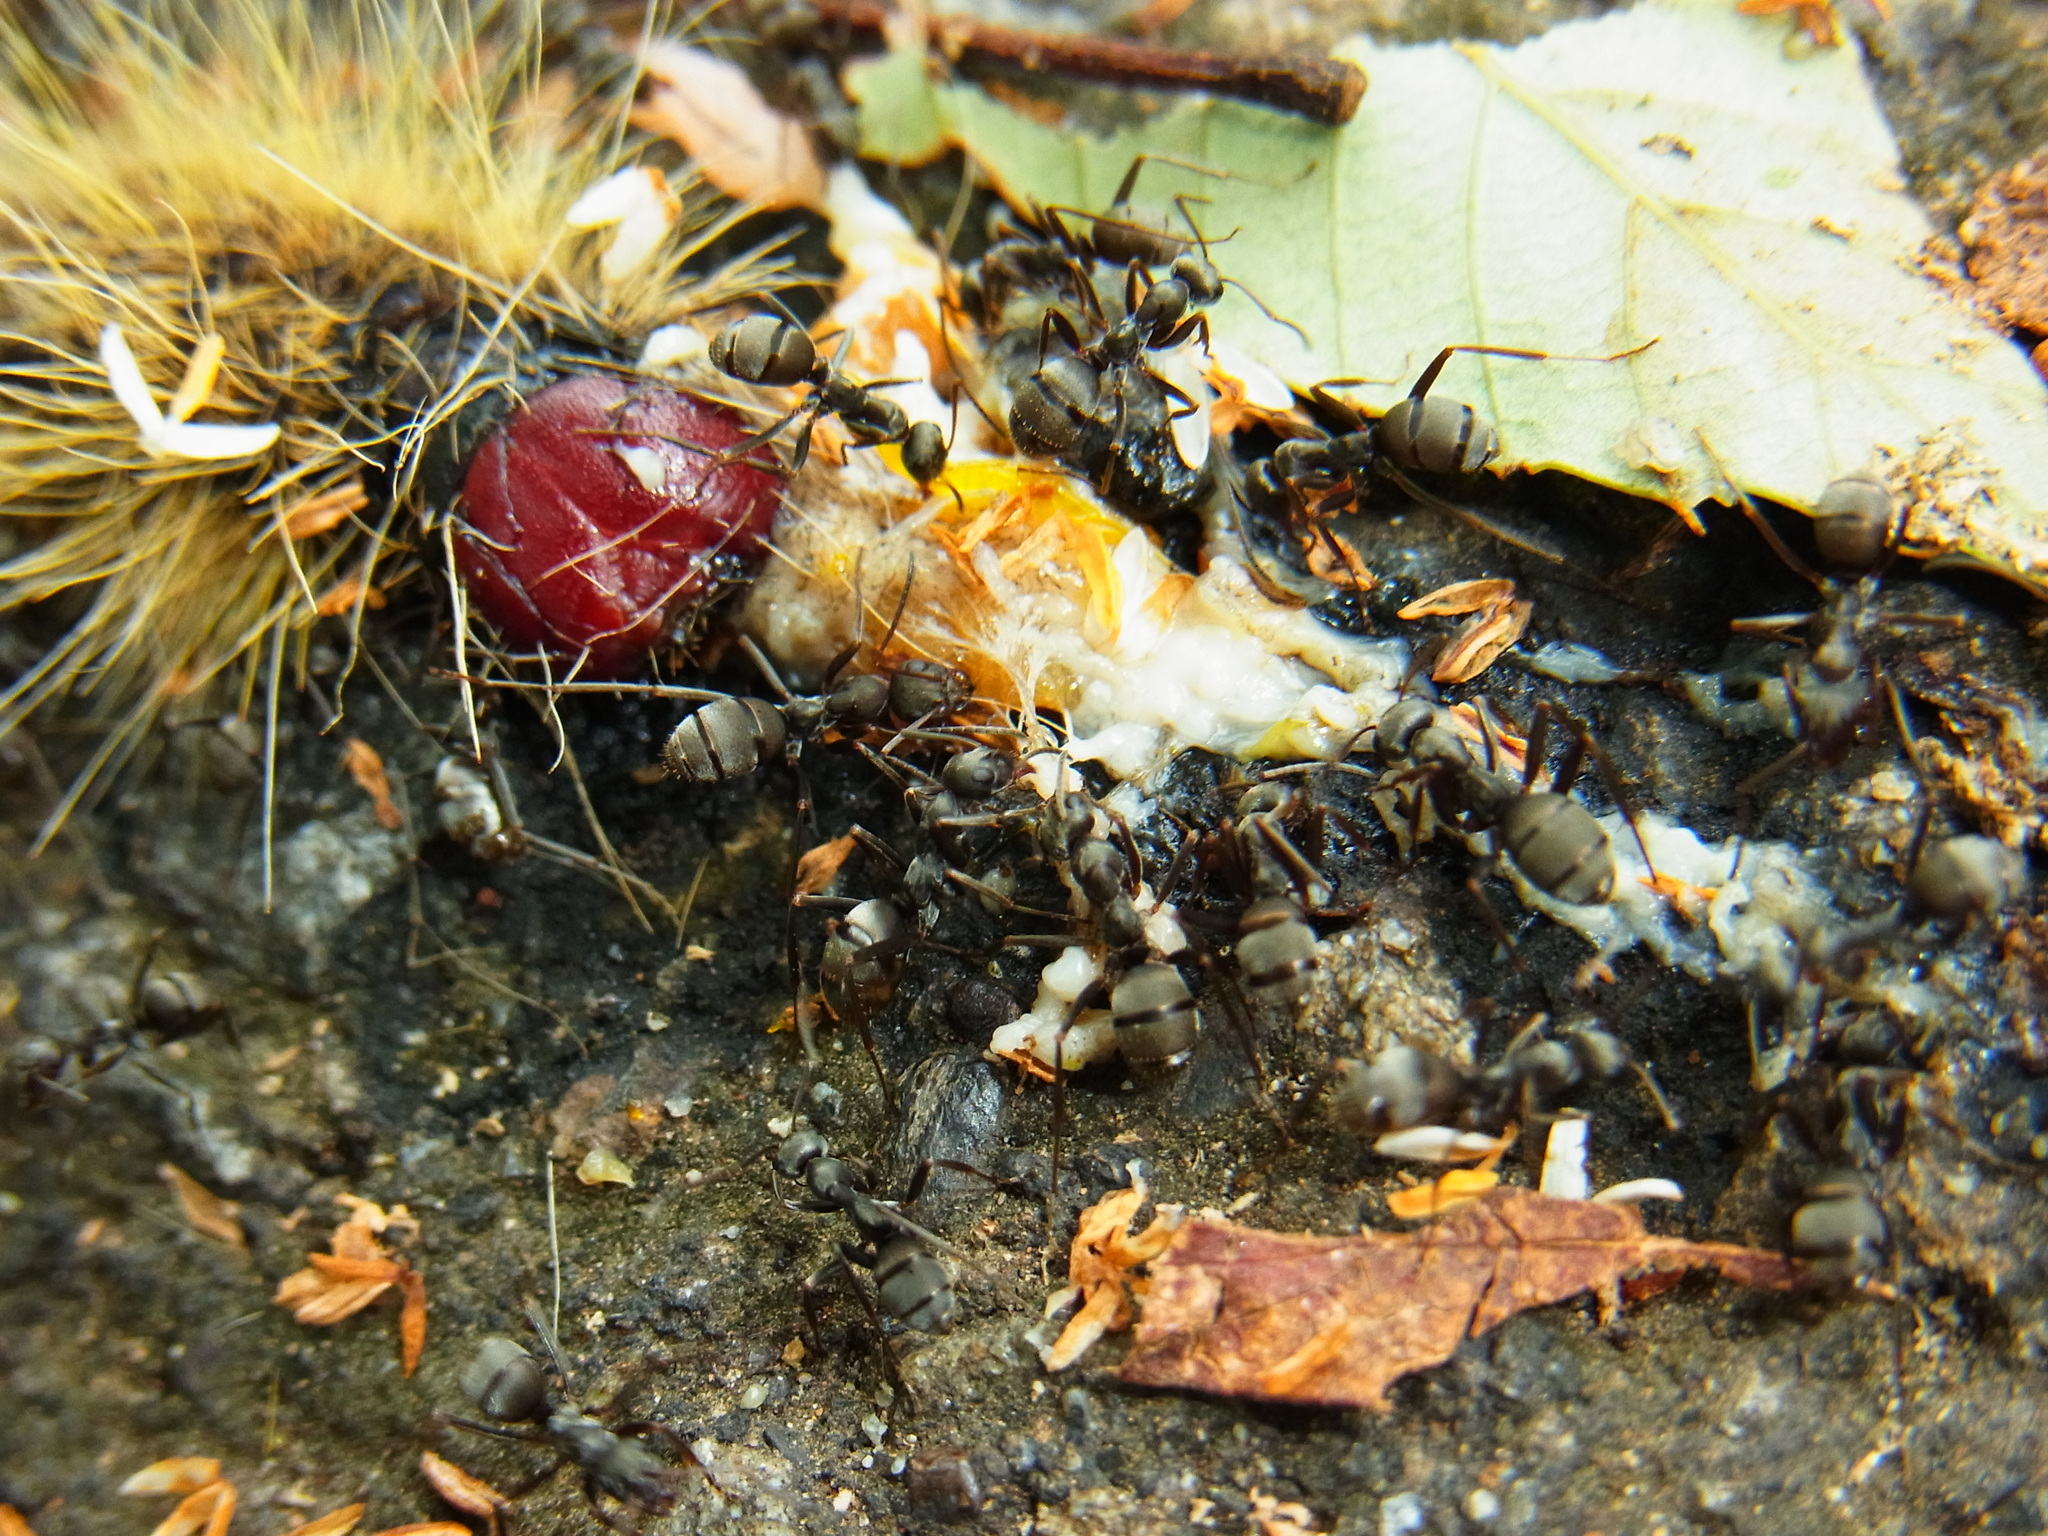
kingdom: Animalia
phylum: Arthropoda
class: Insecta
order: Hymenoptera
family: Formicidae
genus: Formica
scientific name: Formica japonica
